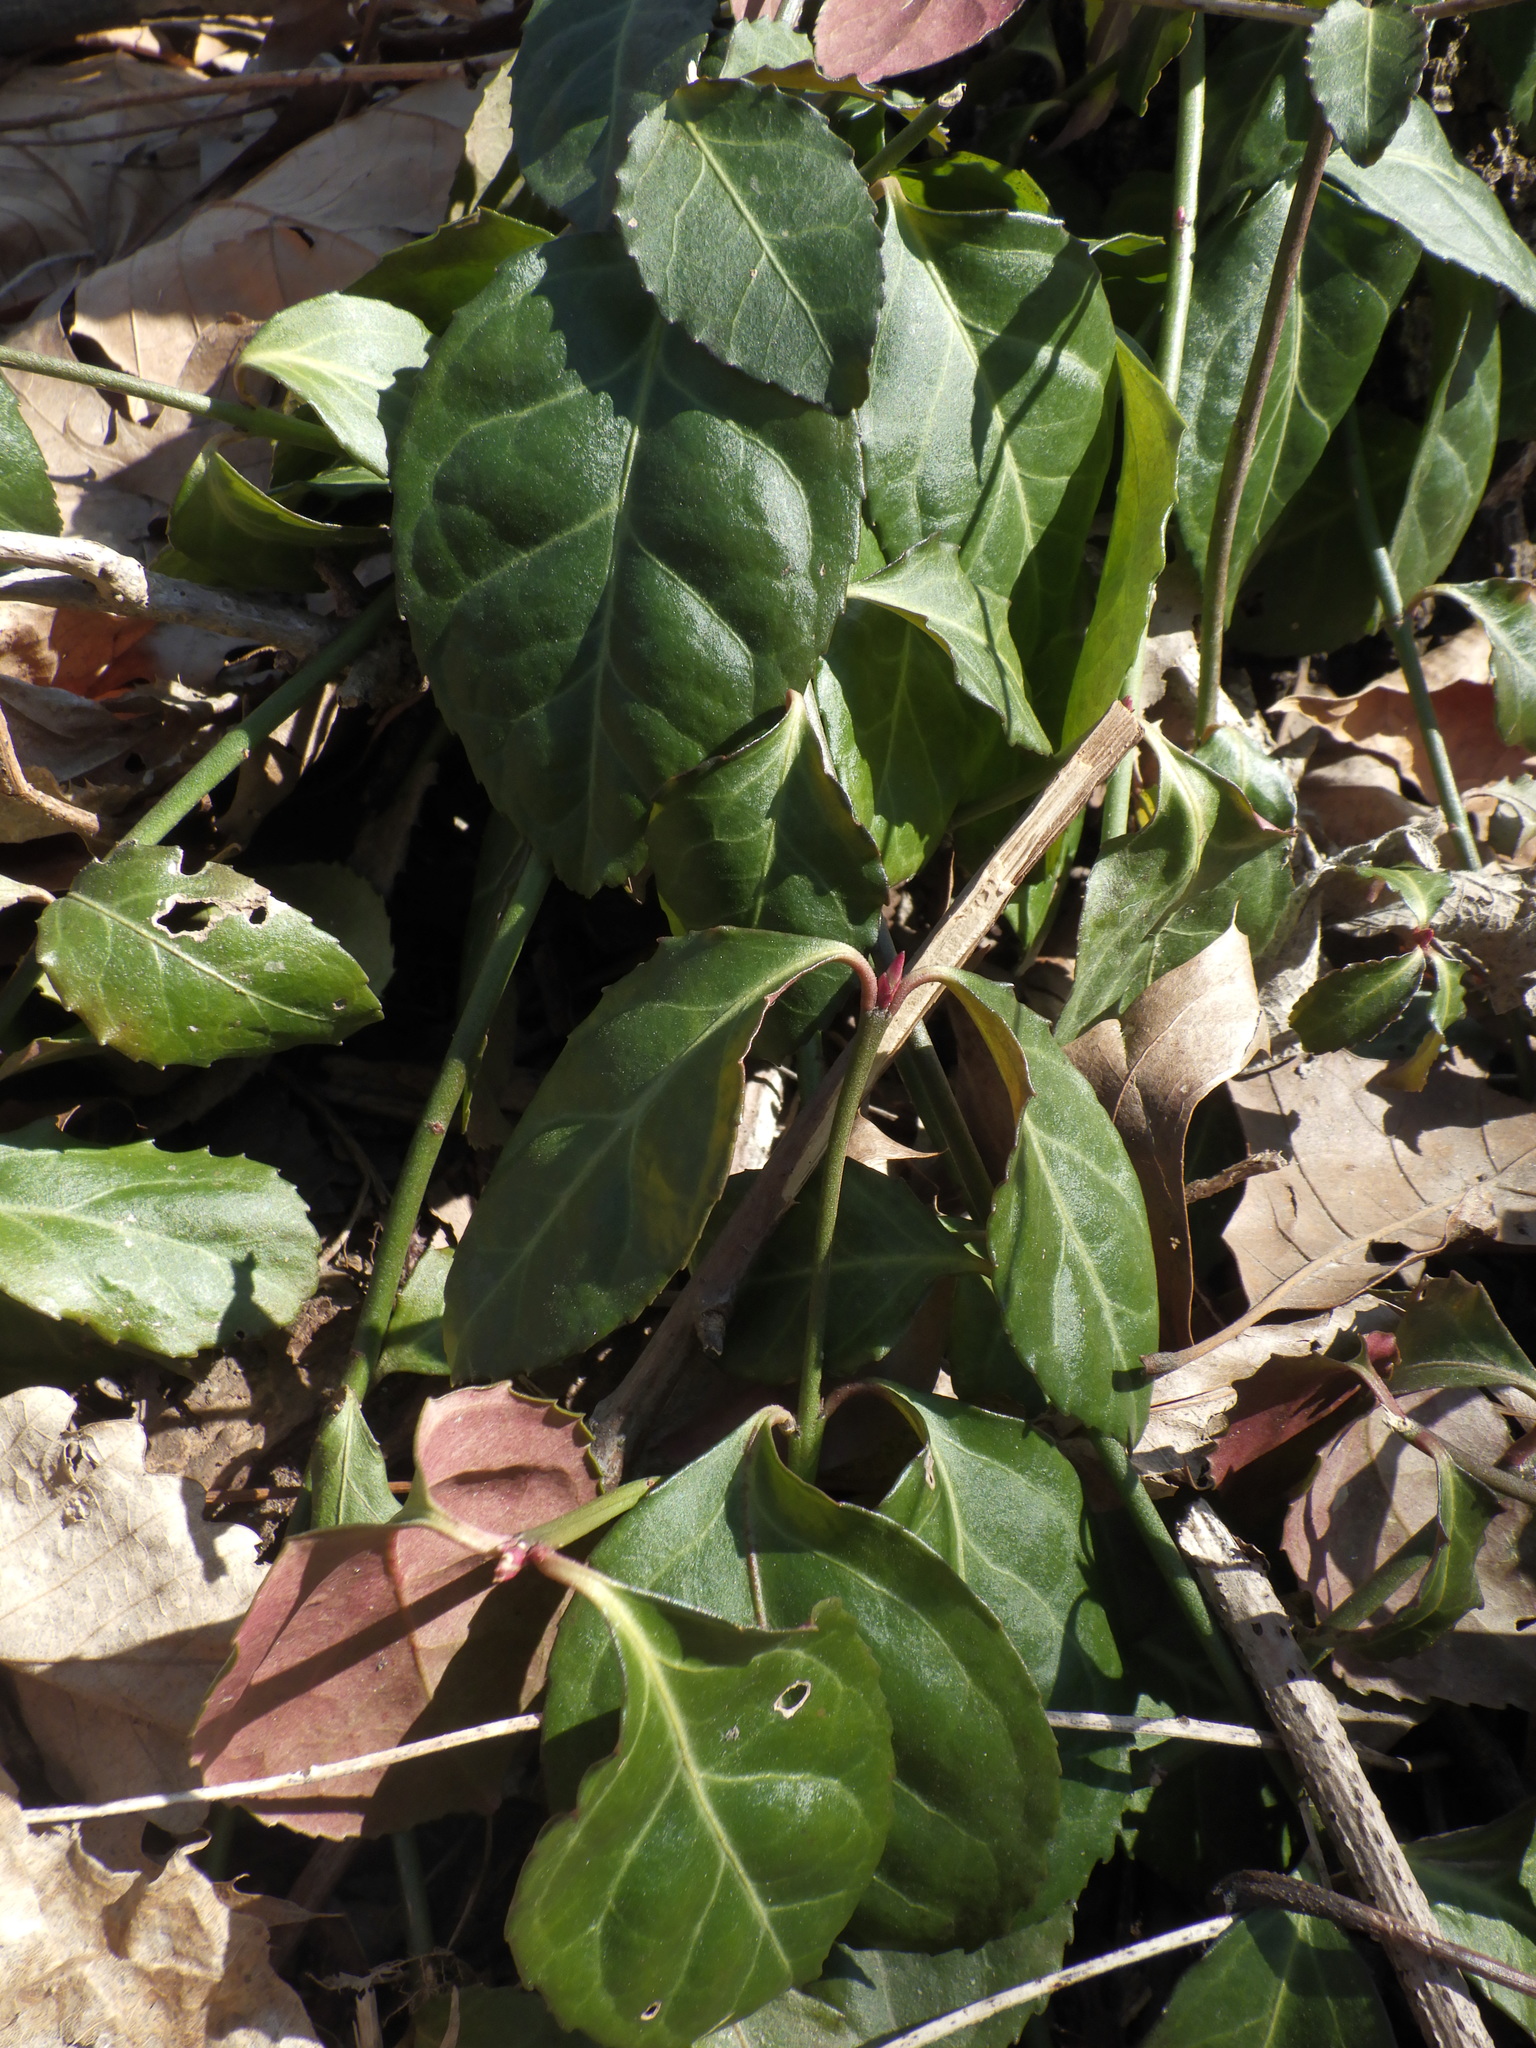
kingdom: Plantae
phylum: Tracheophyta
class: Magnoliopsida
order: Celastrales
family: Celastraceae
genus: Euonymus
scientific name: Euonymus fortunei
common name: Climbing euonymus
